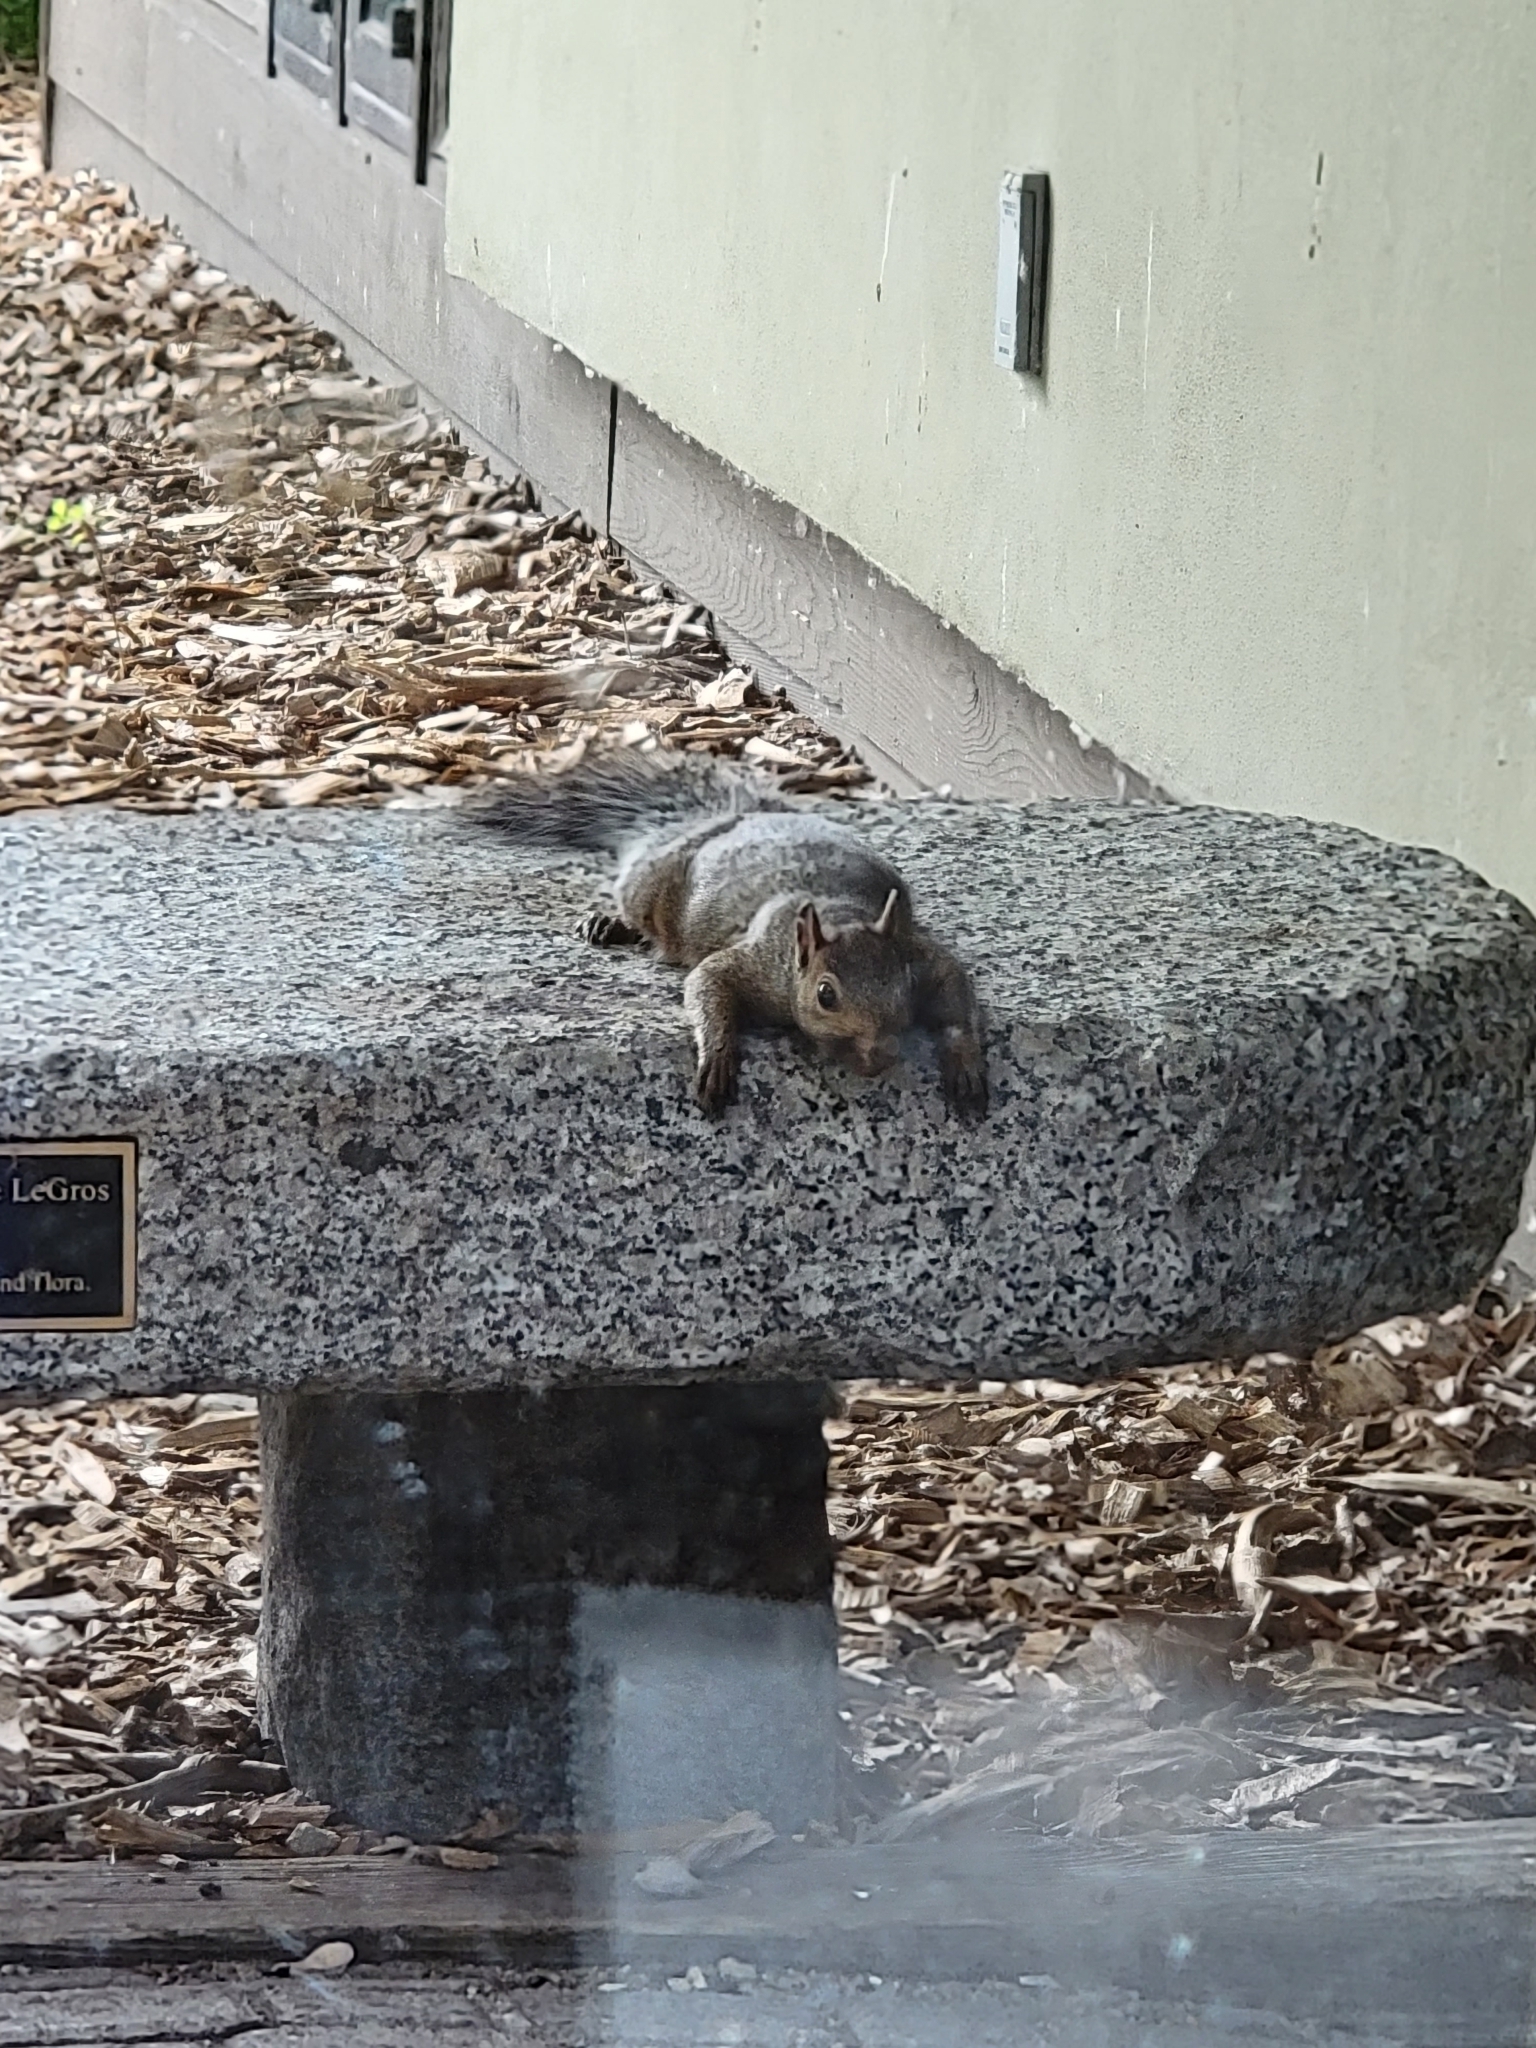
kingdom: Animalia
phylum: Chordata
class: Mammalia
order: Rodentia
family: Sciuridae
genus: Sciurus
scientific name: Sciurus carolinensis
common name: Eastern gray squirrel
